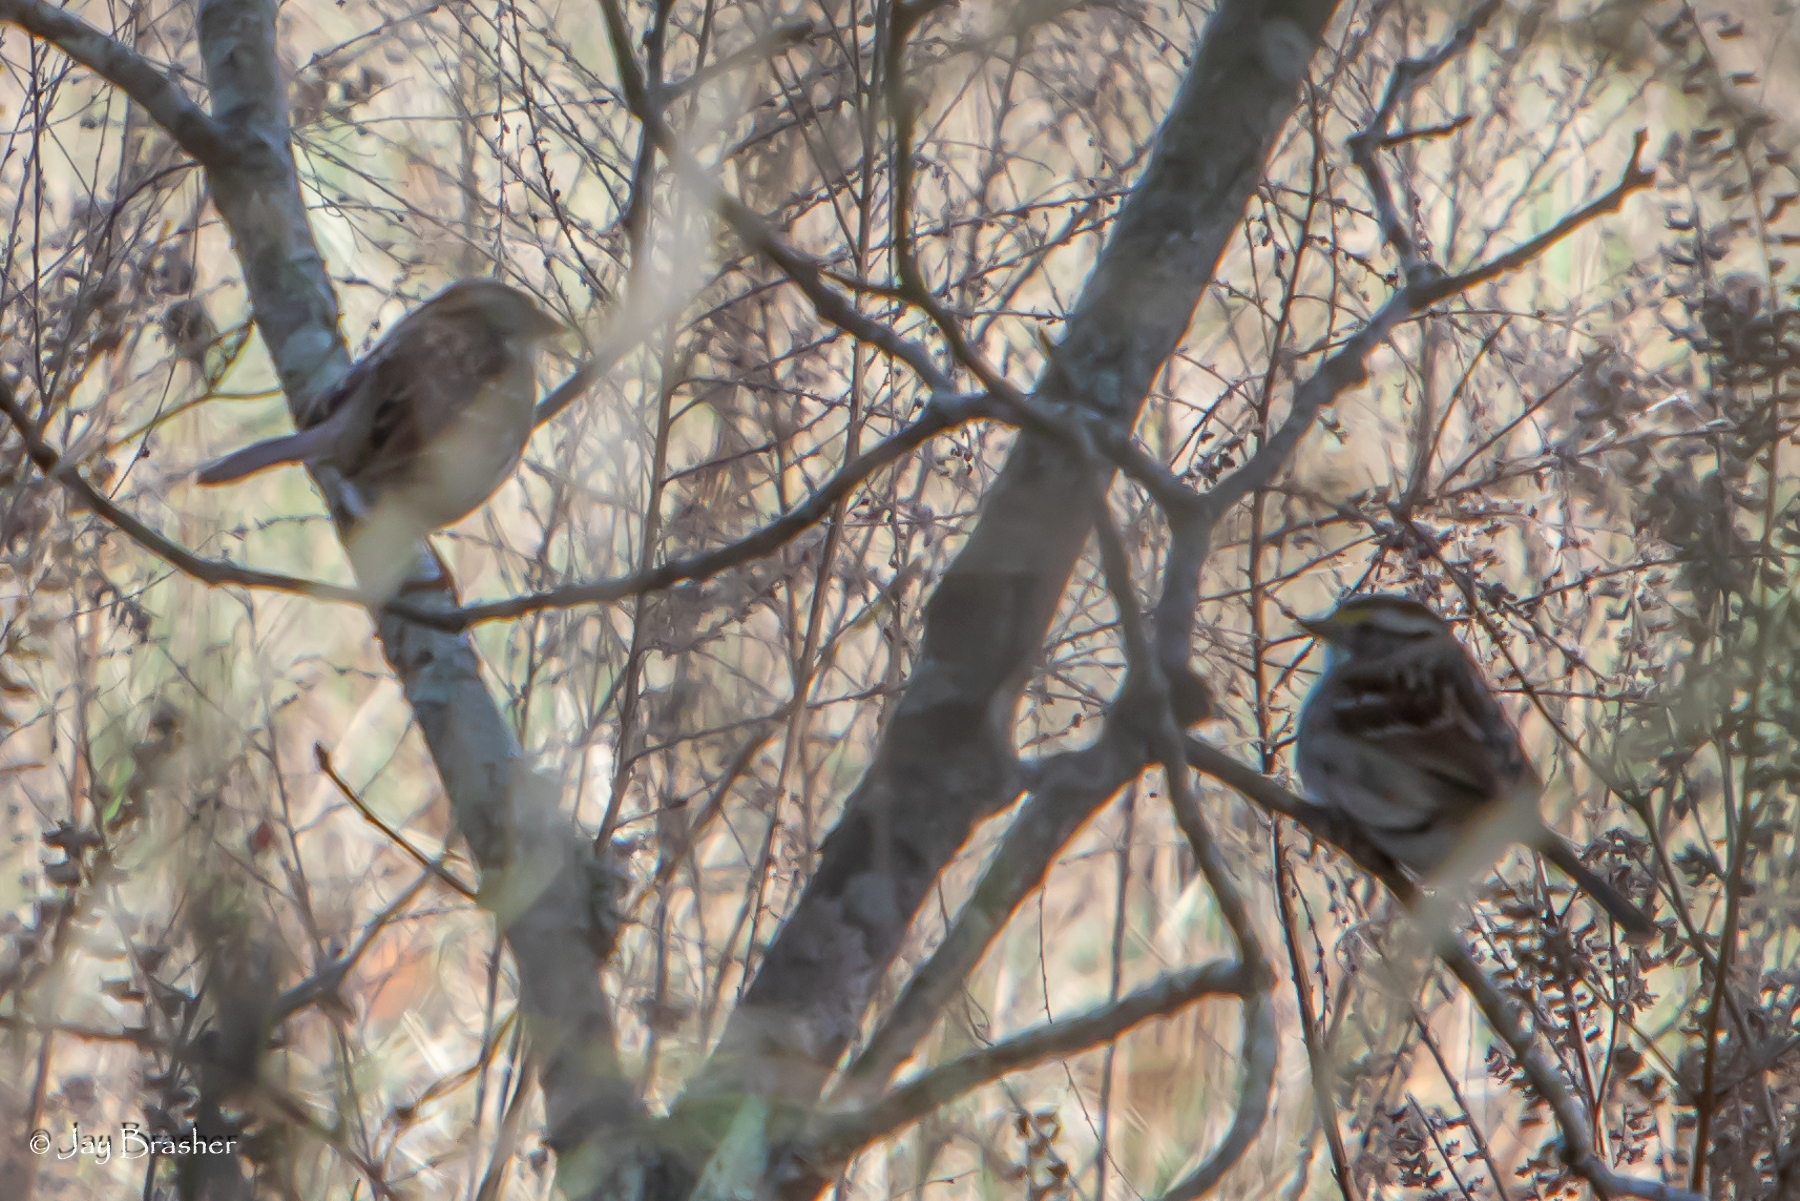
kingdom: Animalia
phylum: Chordata
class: Aves
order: Passeriformes
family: Passerellidae
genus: Zonotrichia
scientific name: Zonotrichia albicollis
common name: White-throated sparrow
